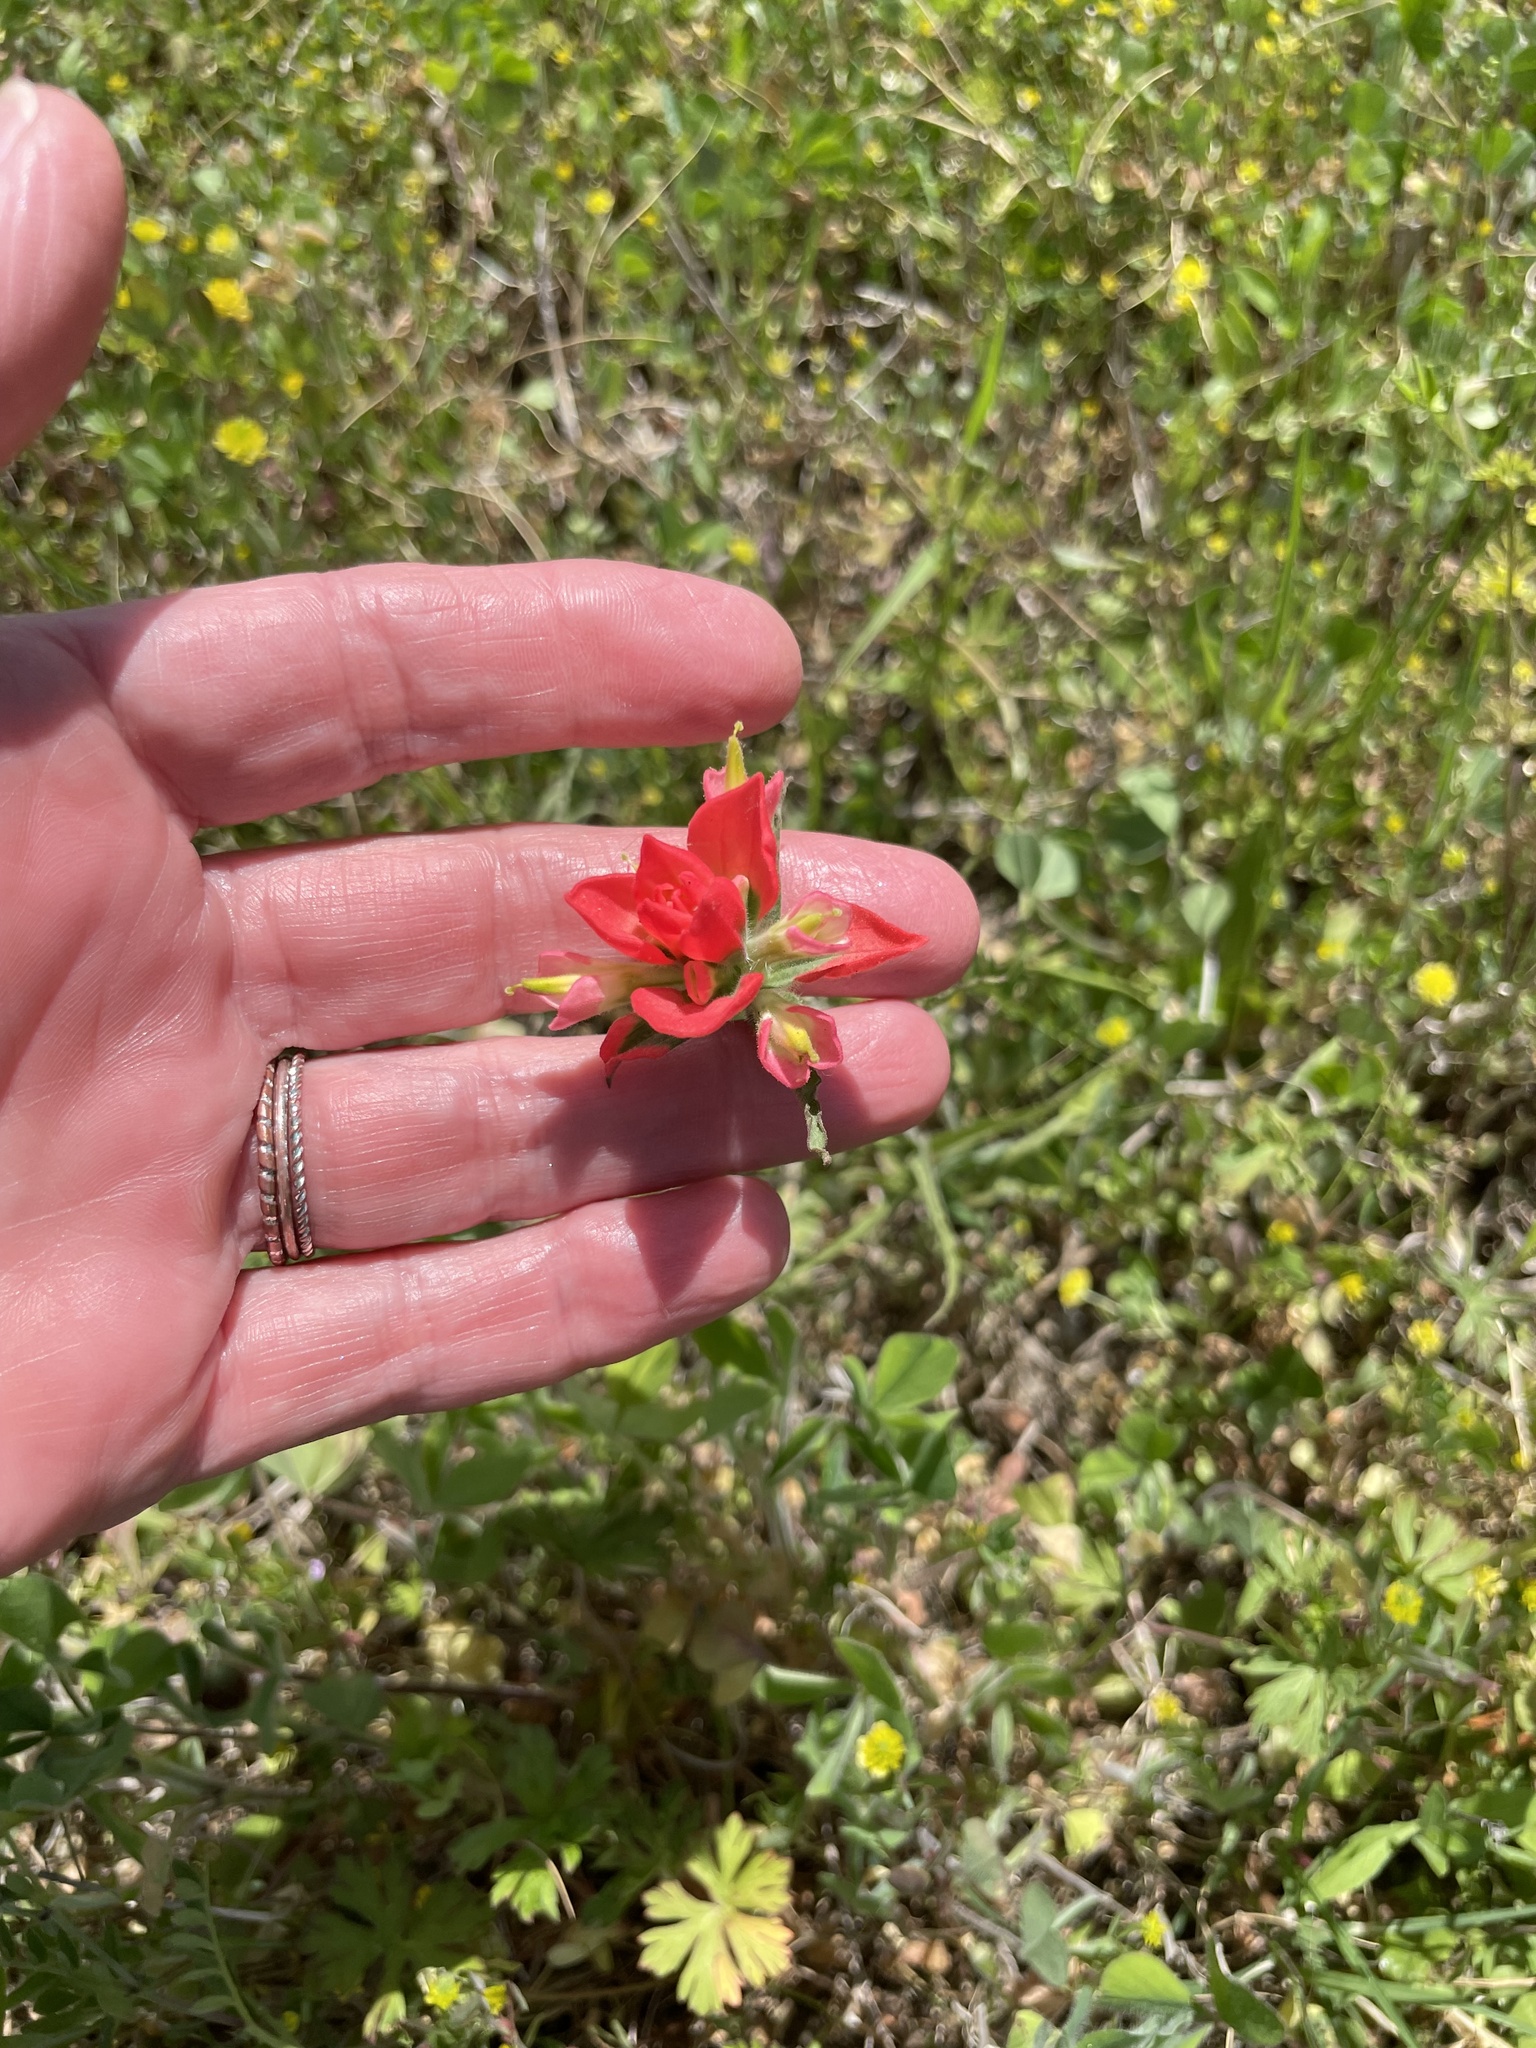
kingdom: Plantae
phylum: Tracheophyta
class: Magnoliopsida
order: Lamiales
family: Orobanchaceae
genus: Castilleja
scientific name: Castilleja indivisa
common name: Texas paintbrush
